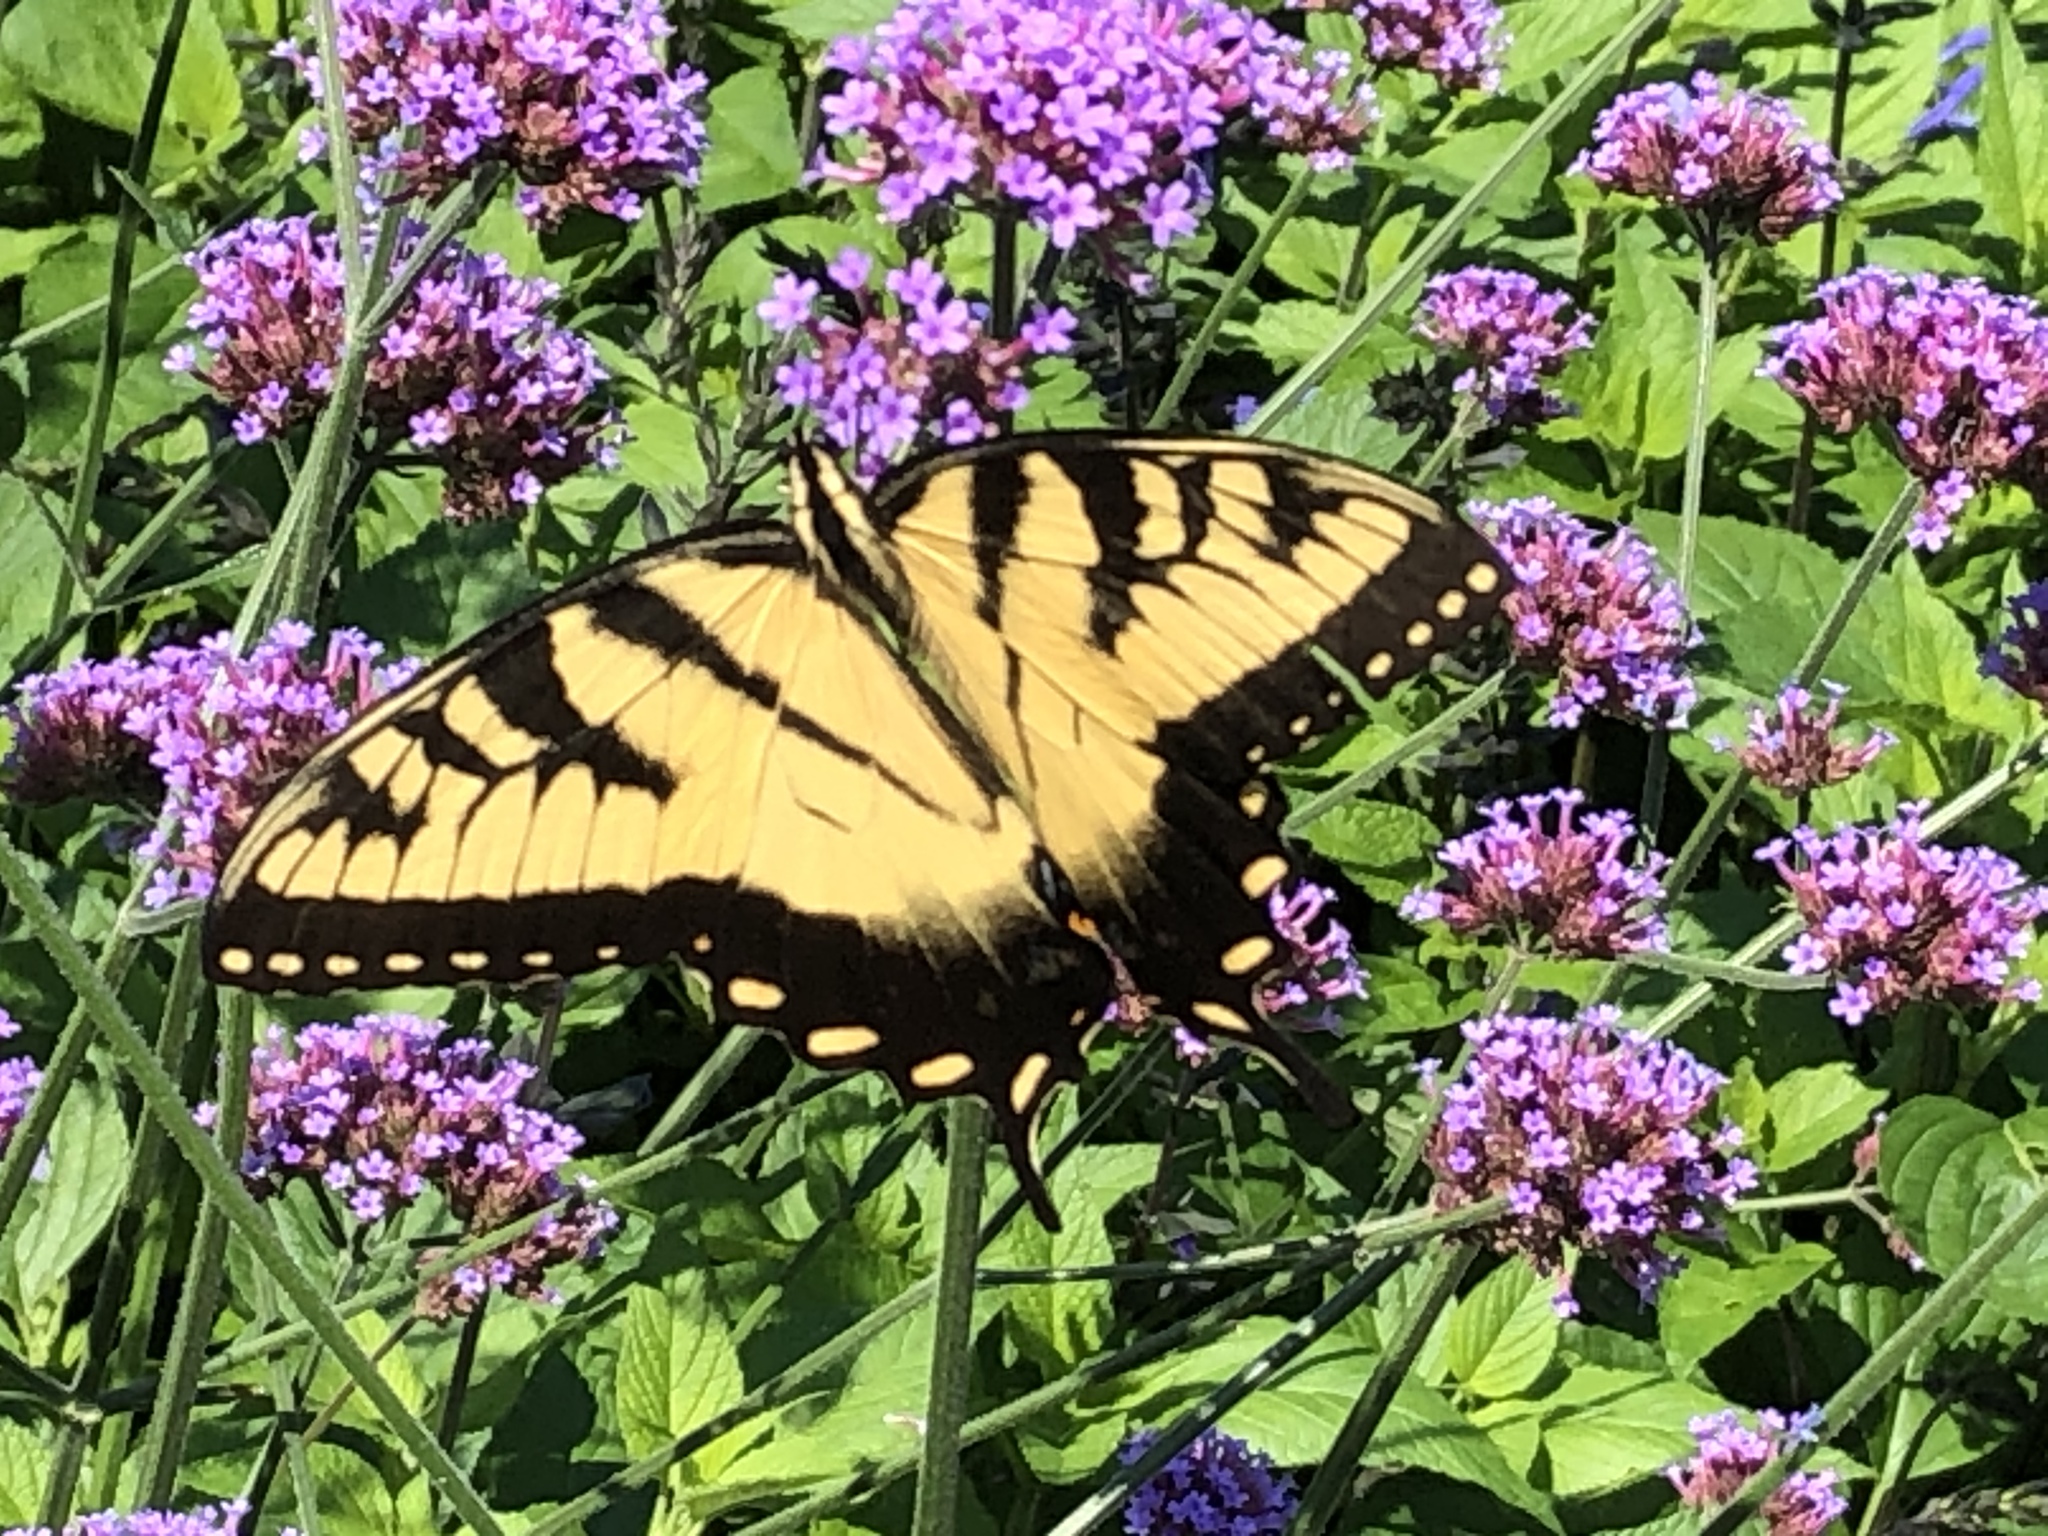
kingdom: Animalia
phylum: Arthropoda
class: Insecta
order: Lepidoptera
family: Papilionidae
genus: Papilio
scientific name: Papilio glaucus
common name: Tiger swallowtail
